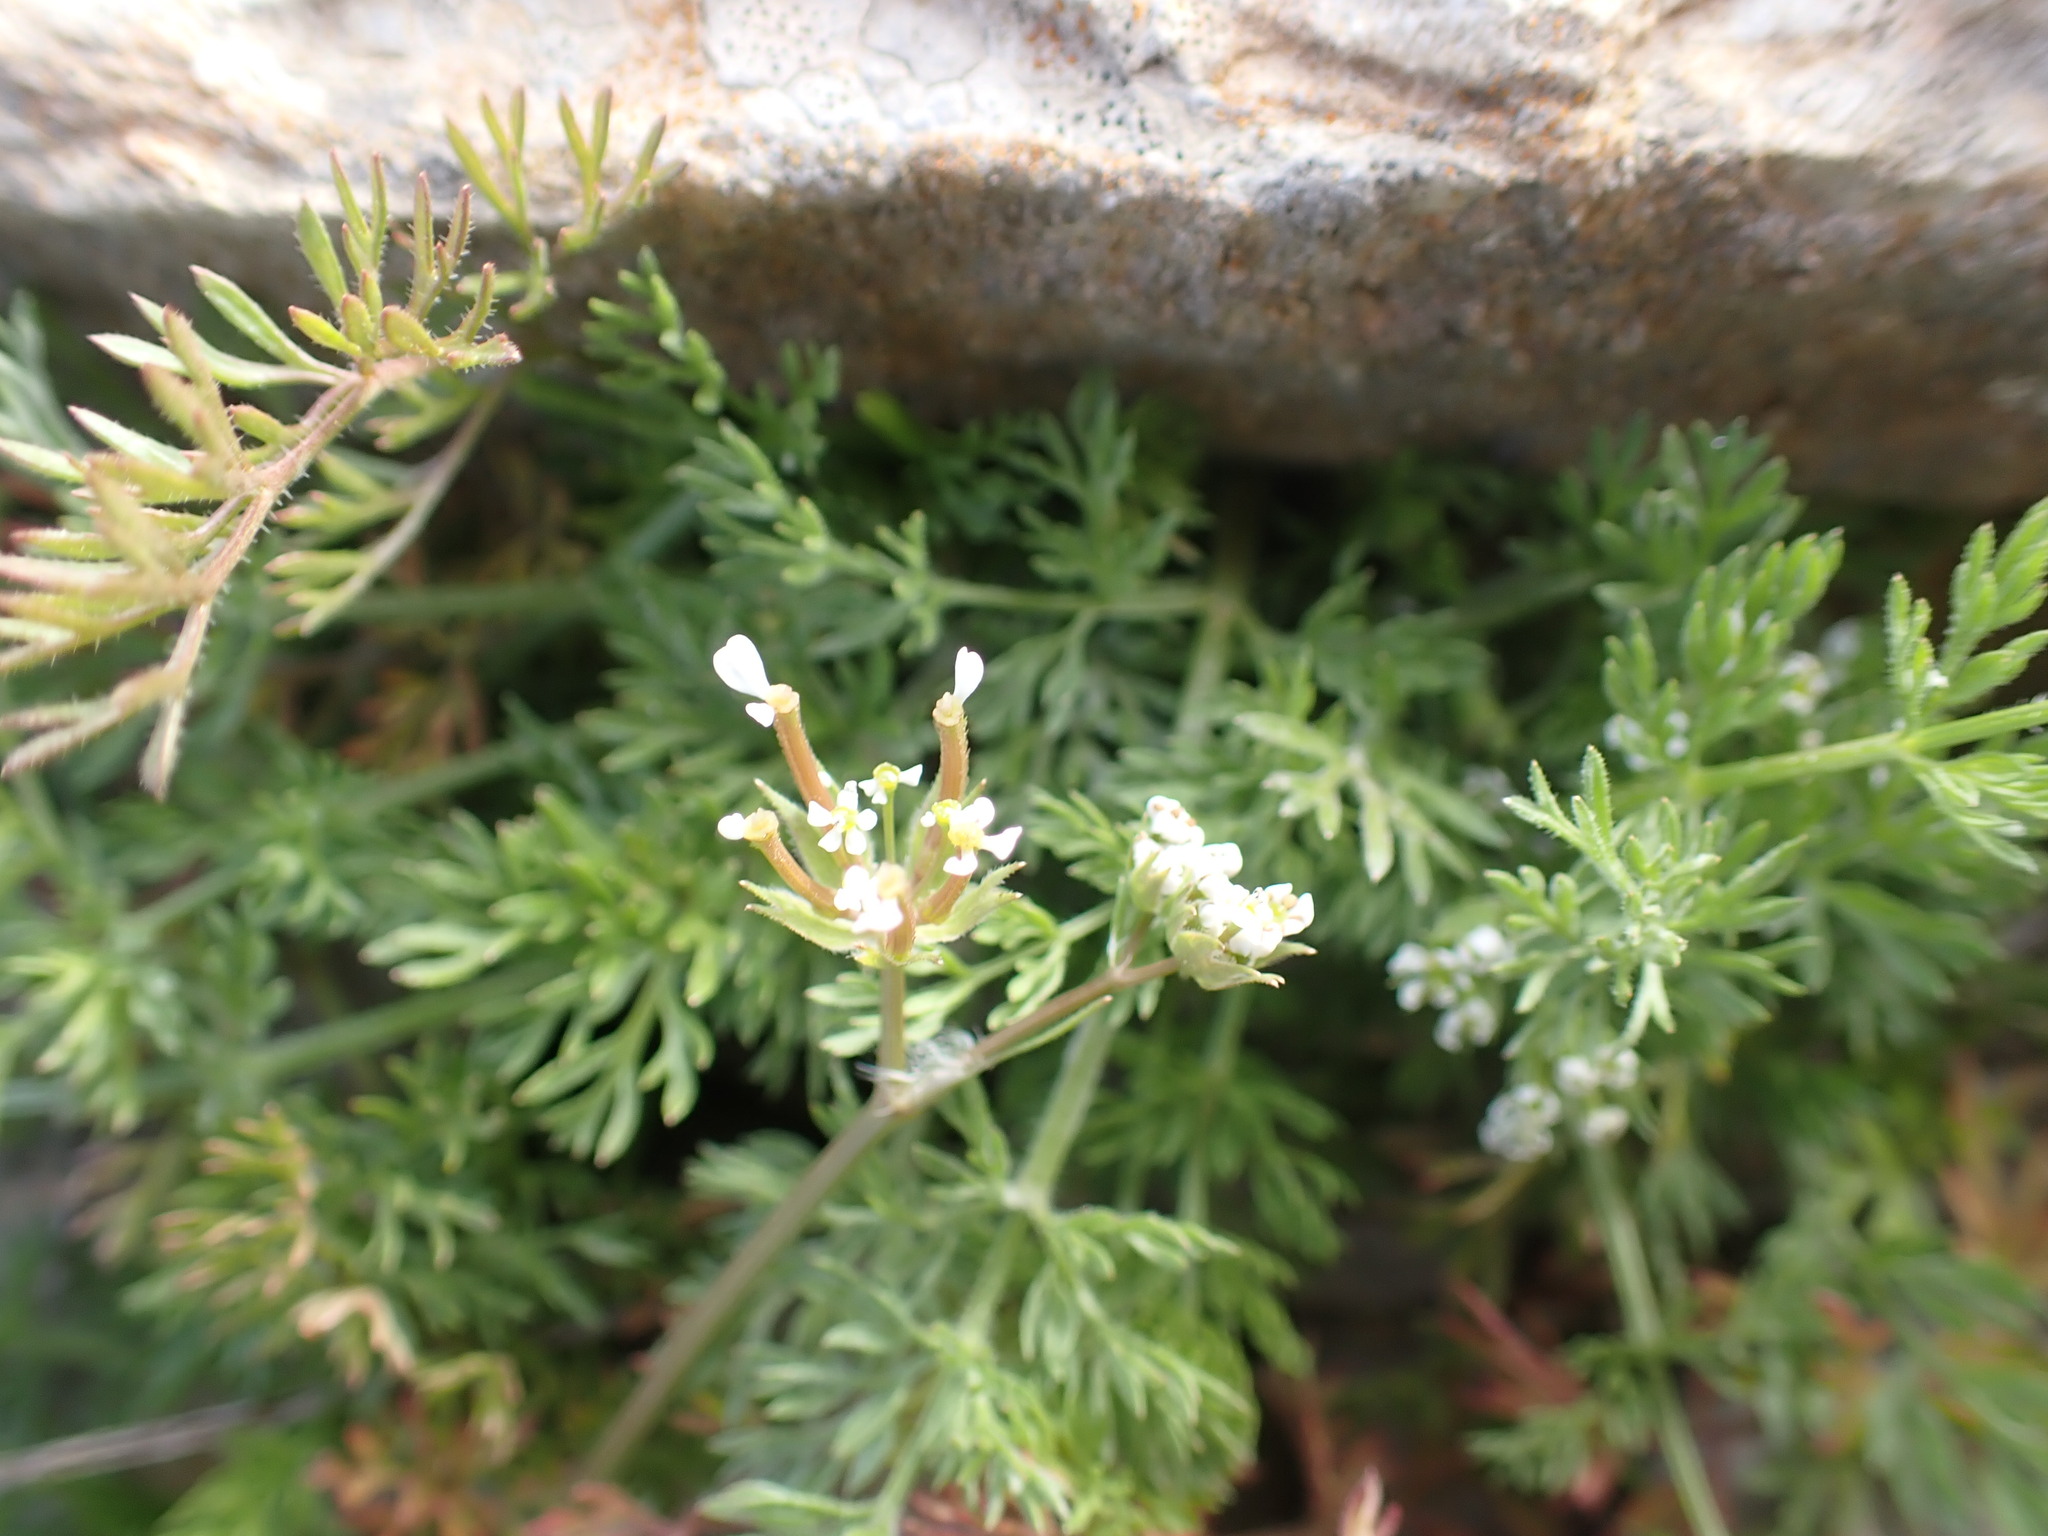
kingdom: Plantae
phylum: Tracheophyta
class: Magnoliopsida
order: Apiales
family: Apiaceae
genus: Scandix
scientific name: Scandix pecten-veneris
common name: Shepherd's-needle
